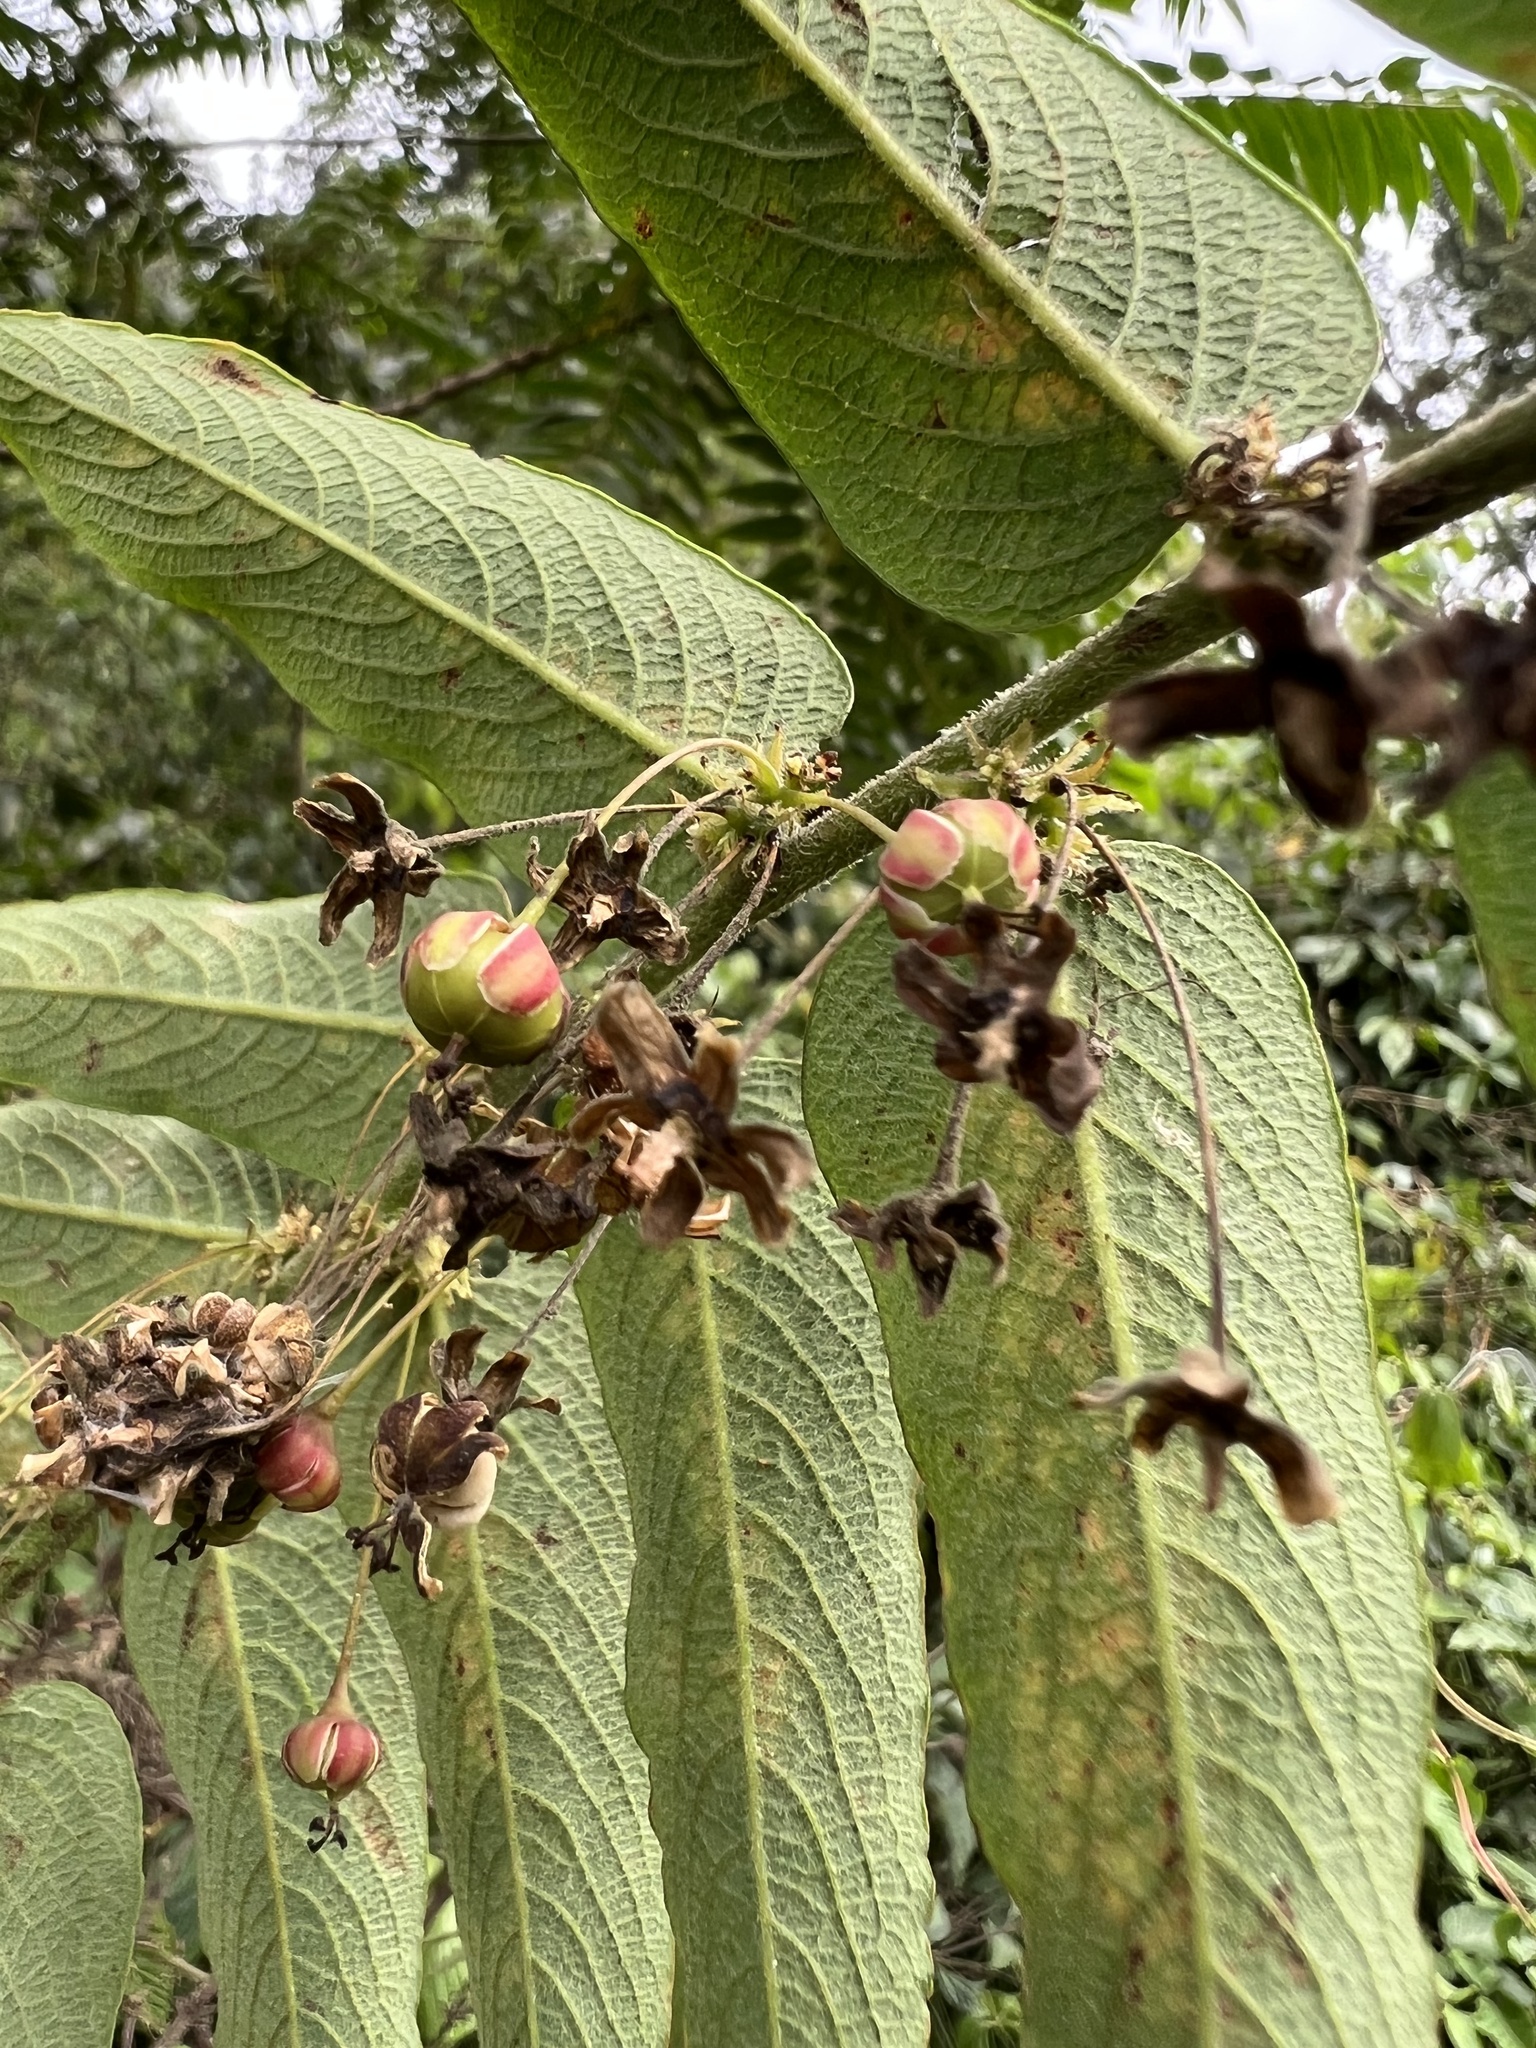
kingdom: Plantae
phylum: Tracheophyta
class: Magnoliopsida
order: Malpighiales
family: Phyllanthaceae
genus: Phyllanthus
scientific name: Phyllanthus salviifolius
